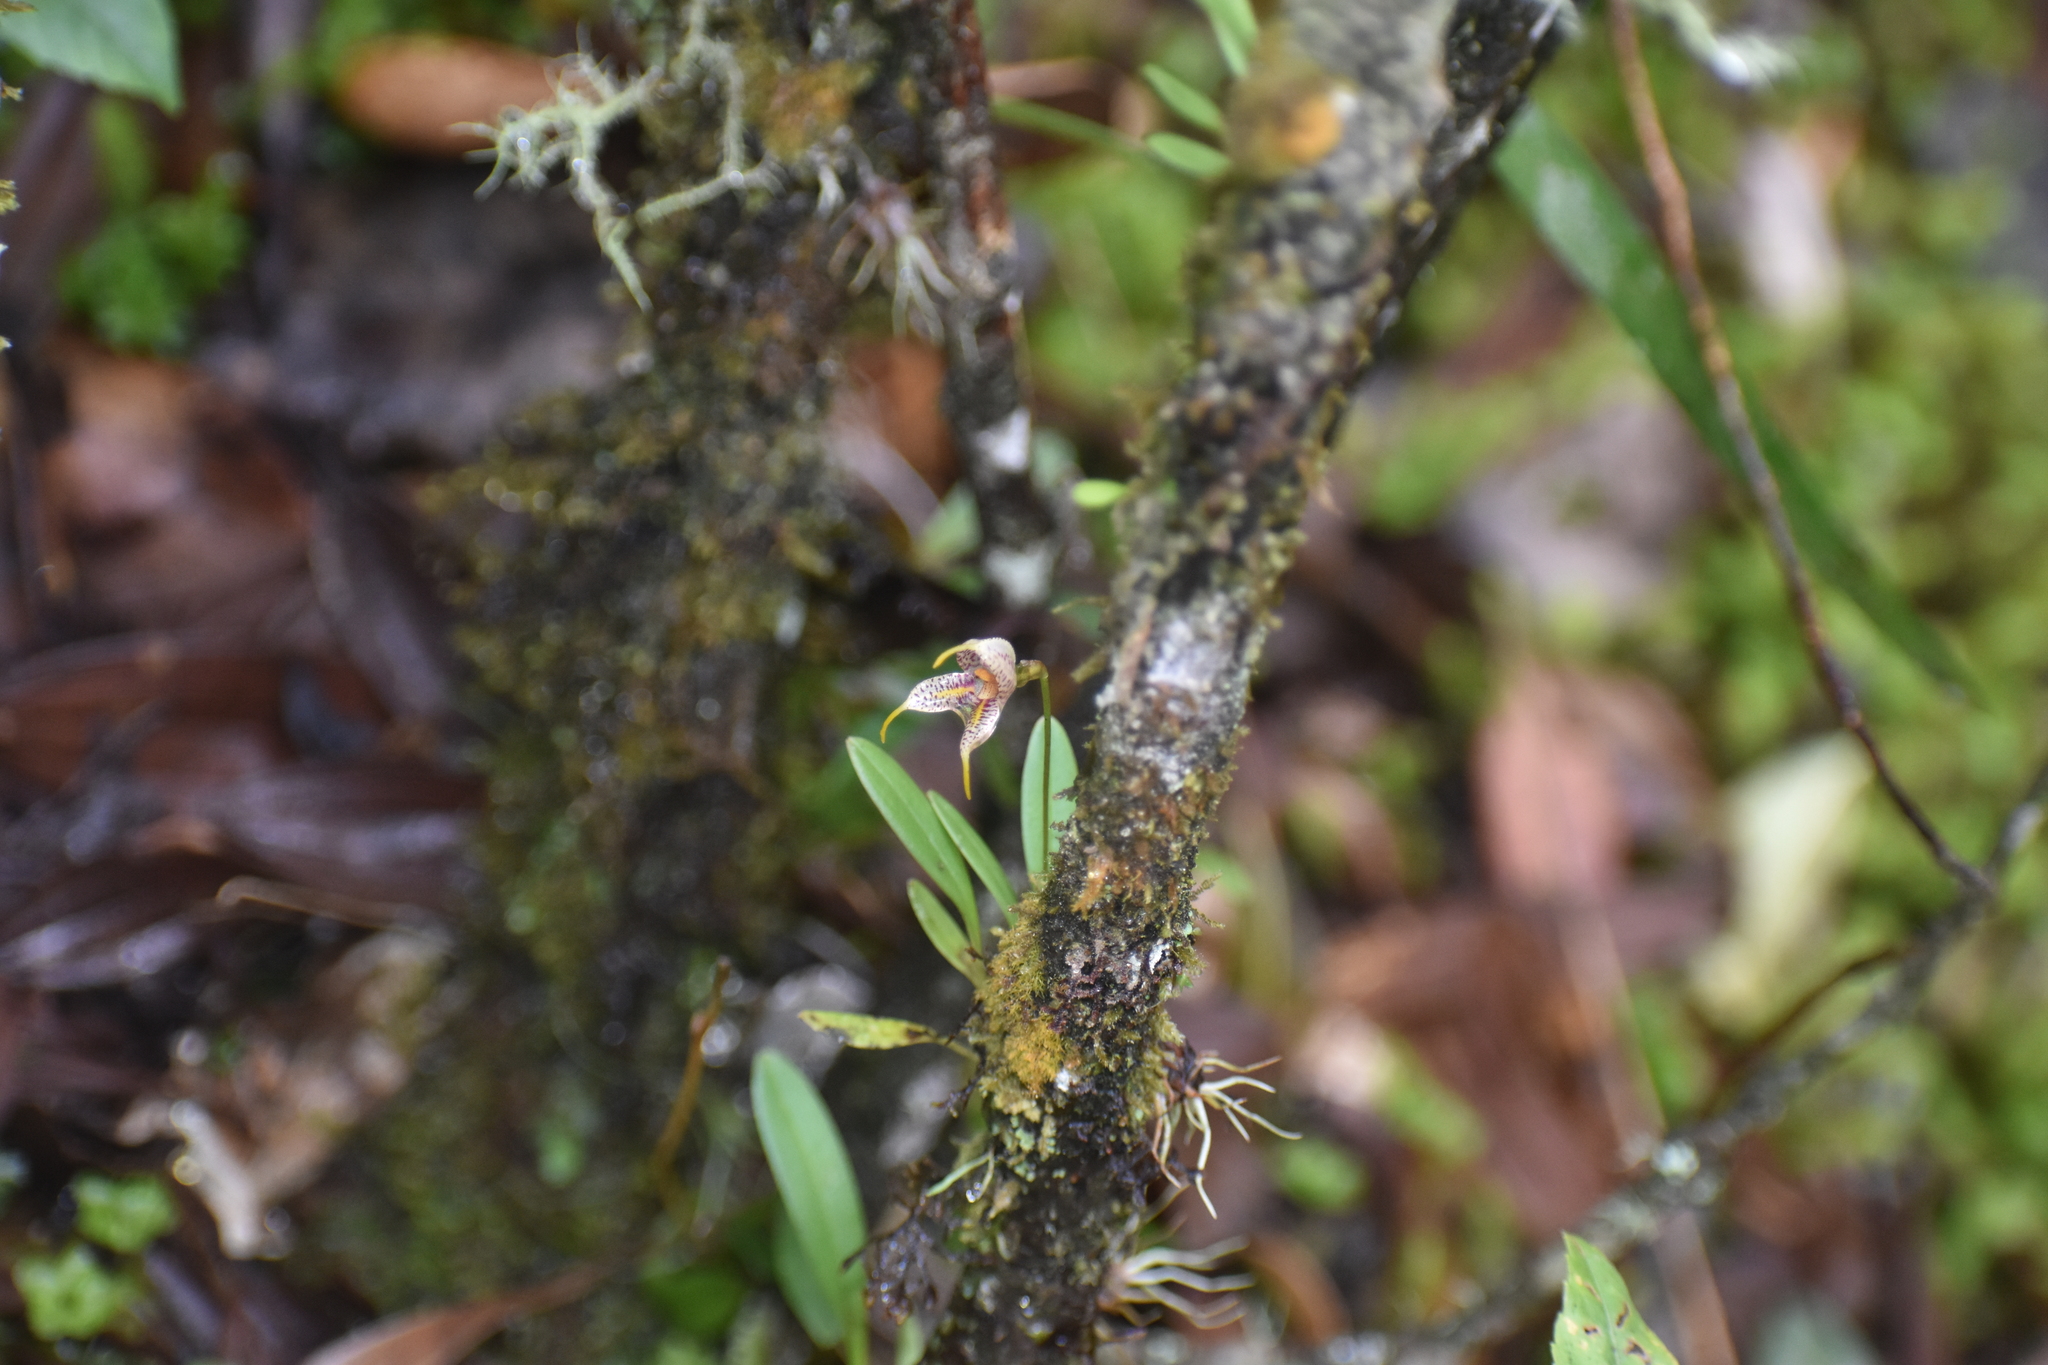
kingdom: Plantae
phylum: Tracheophyta
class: Liliopsida
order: Asparagales
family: Orchidaceae
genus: Masdevallia
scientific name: Masdevallia amanda
